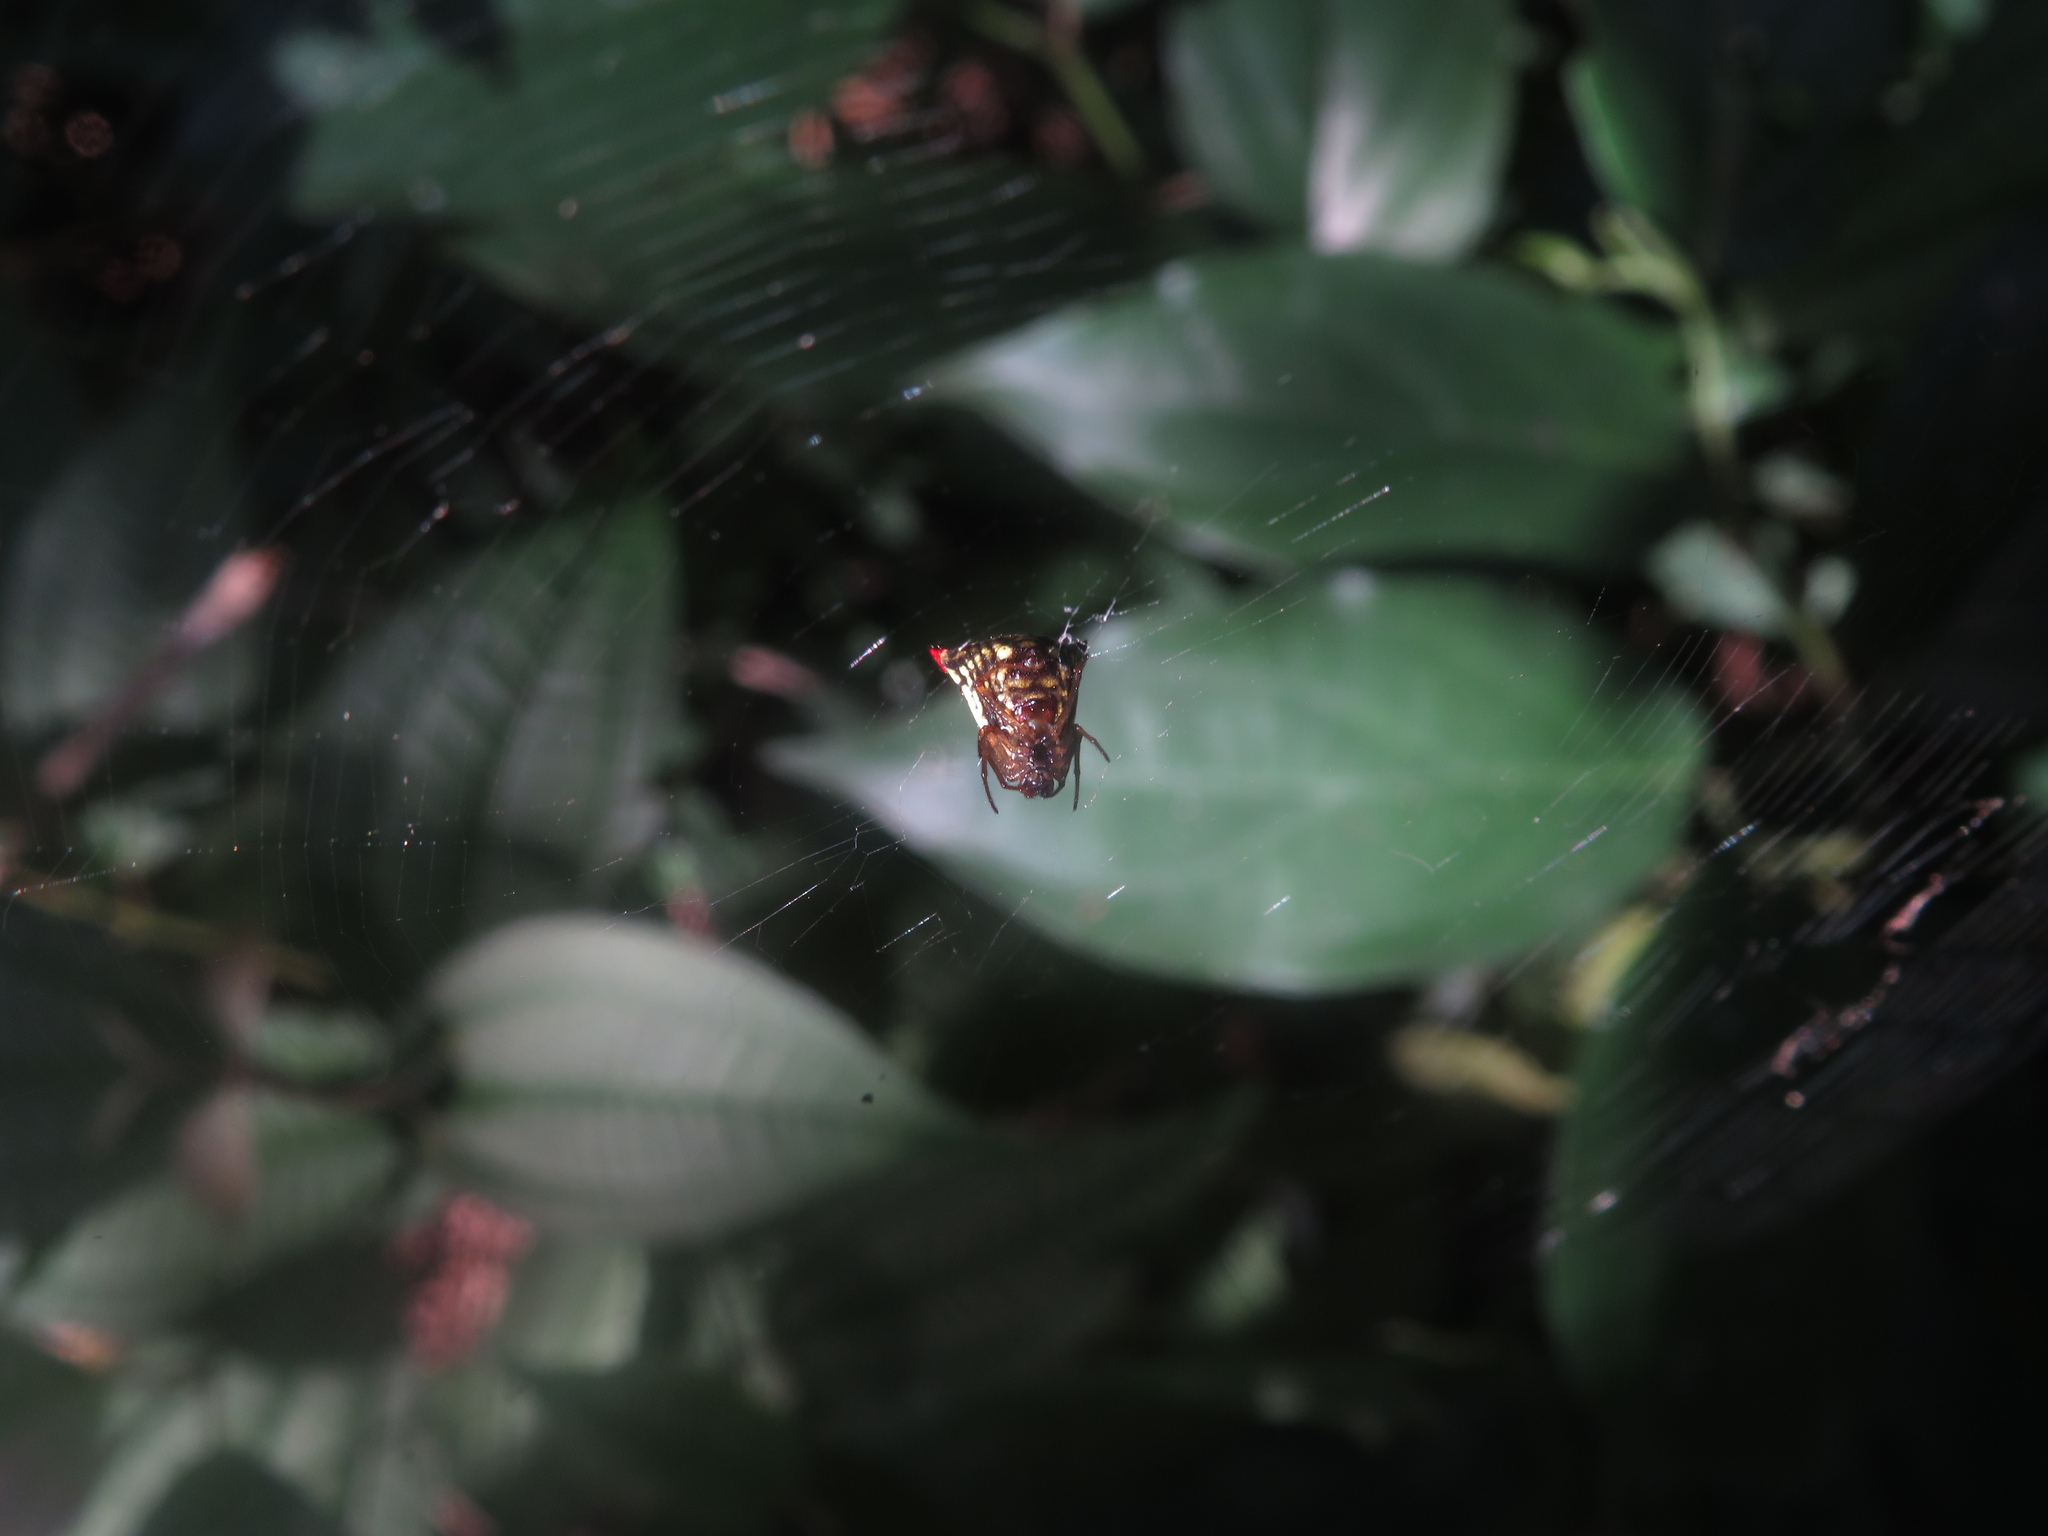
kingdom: Animalia
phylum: Arthropoda
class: Arachnida
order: Araneae
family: Araneidae
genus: Micrathena
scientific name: Micrathena plana
